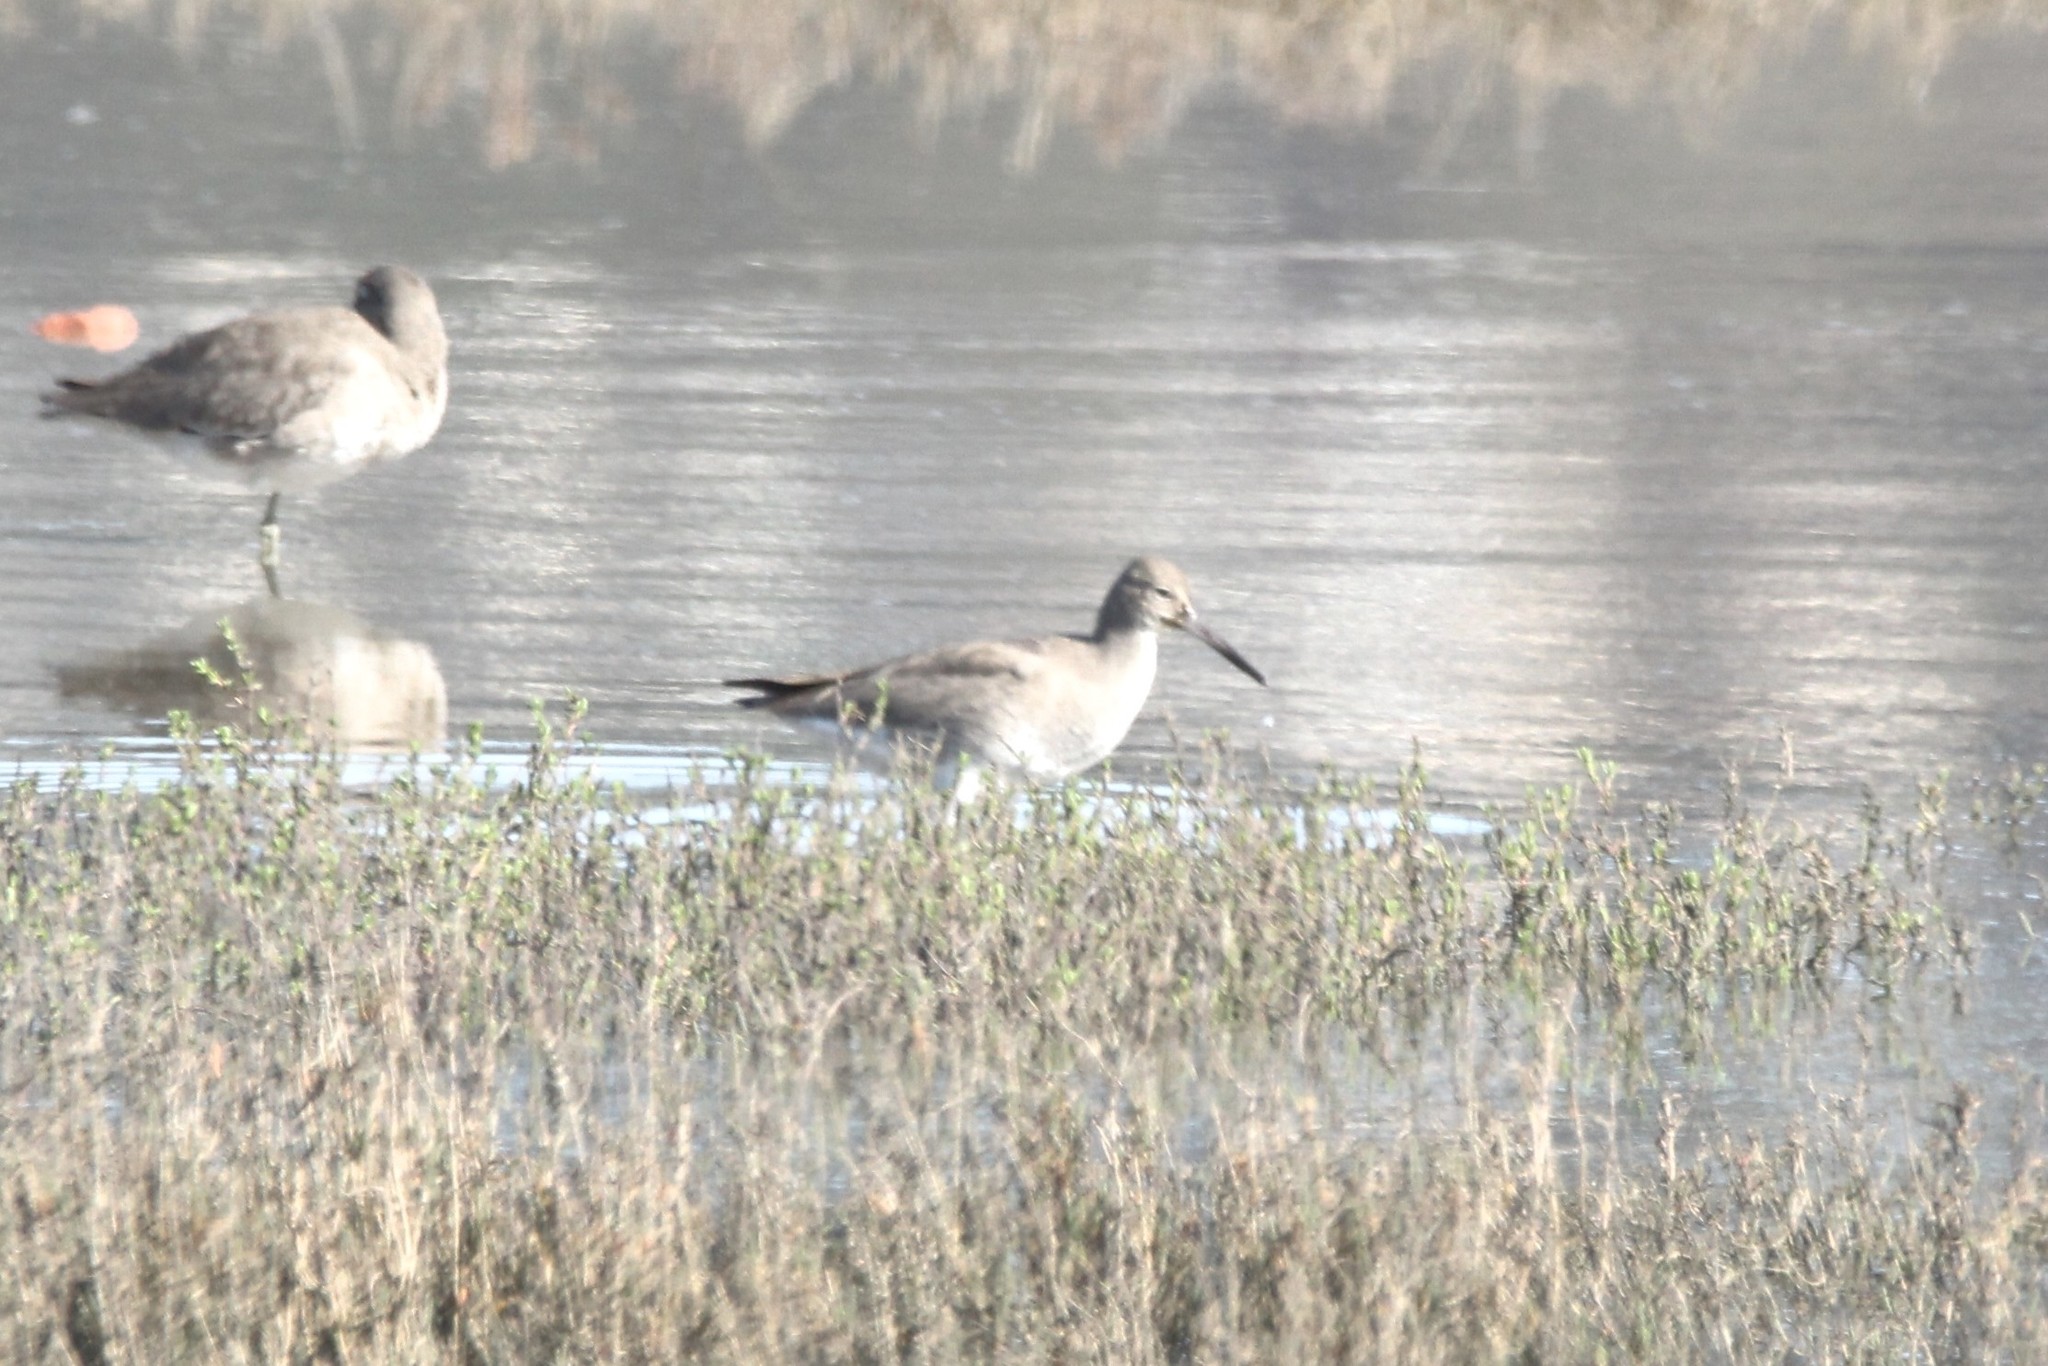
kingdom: Animalia
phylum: Chordata
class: Aves
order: Charadriiformes
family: Scolopacidae
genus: Tringa
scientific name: Tringa semipalmata
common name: Willet
